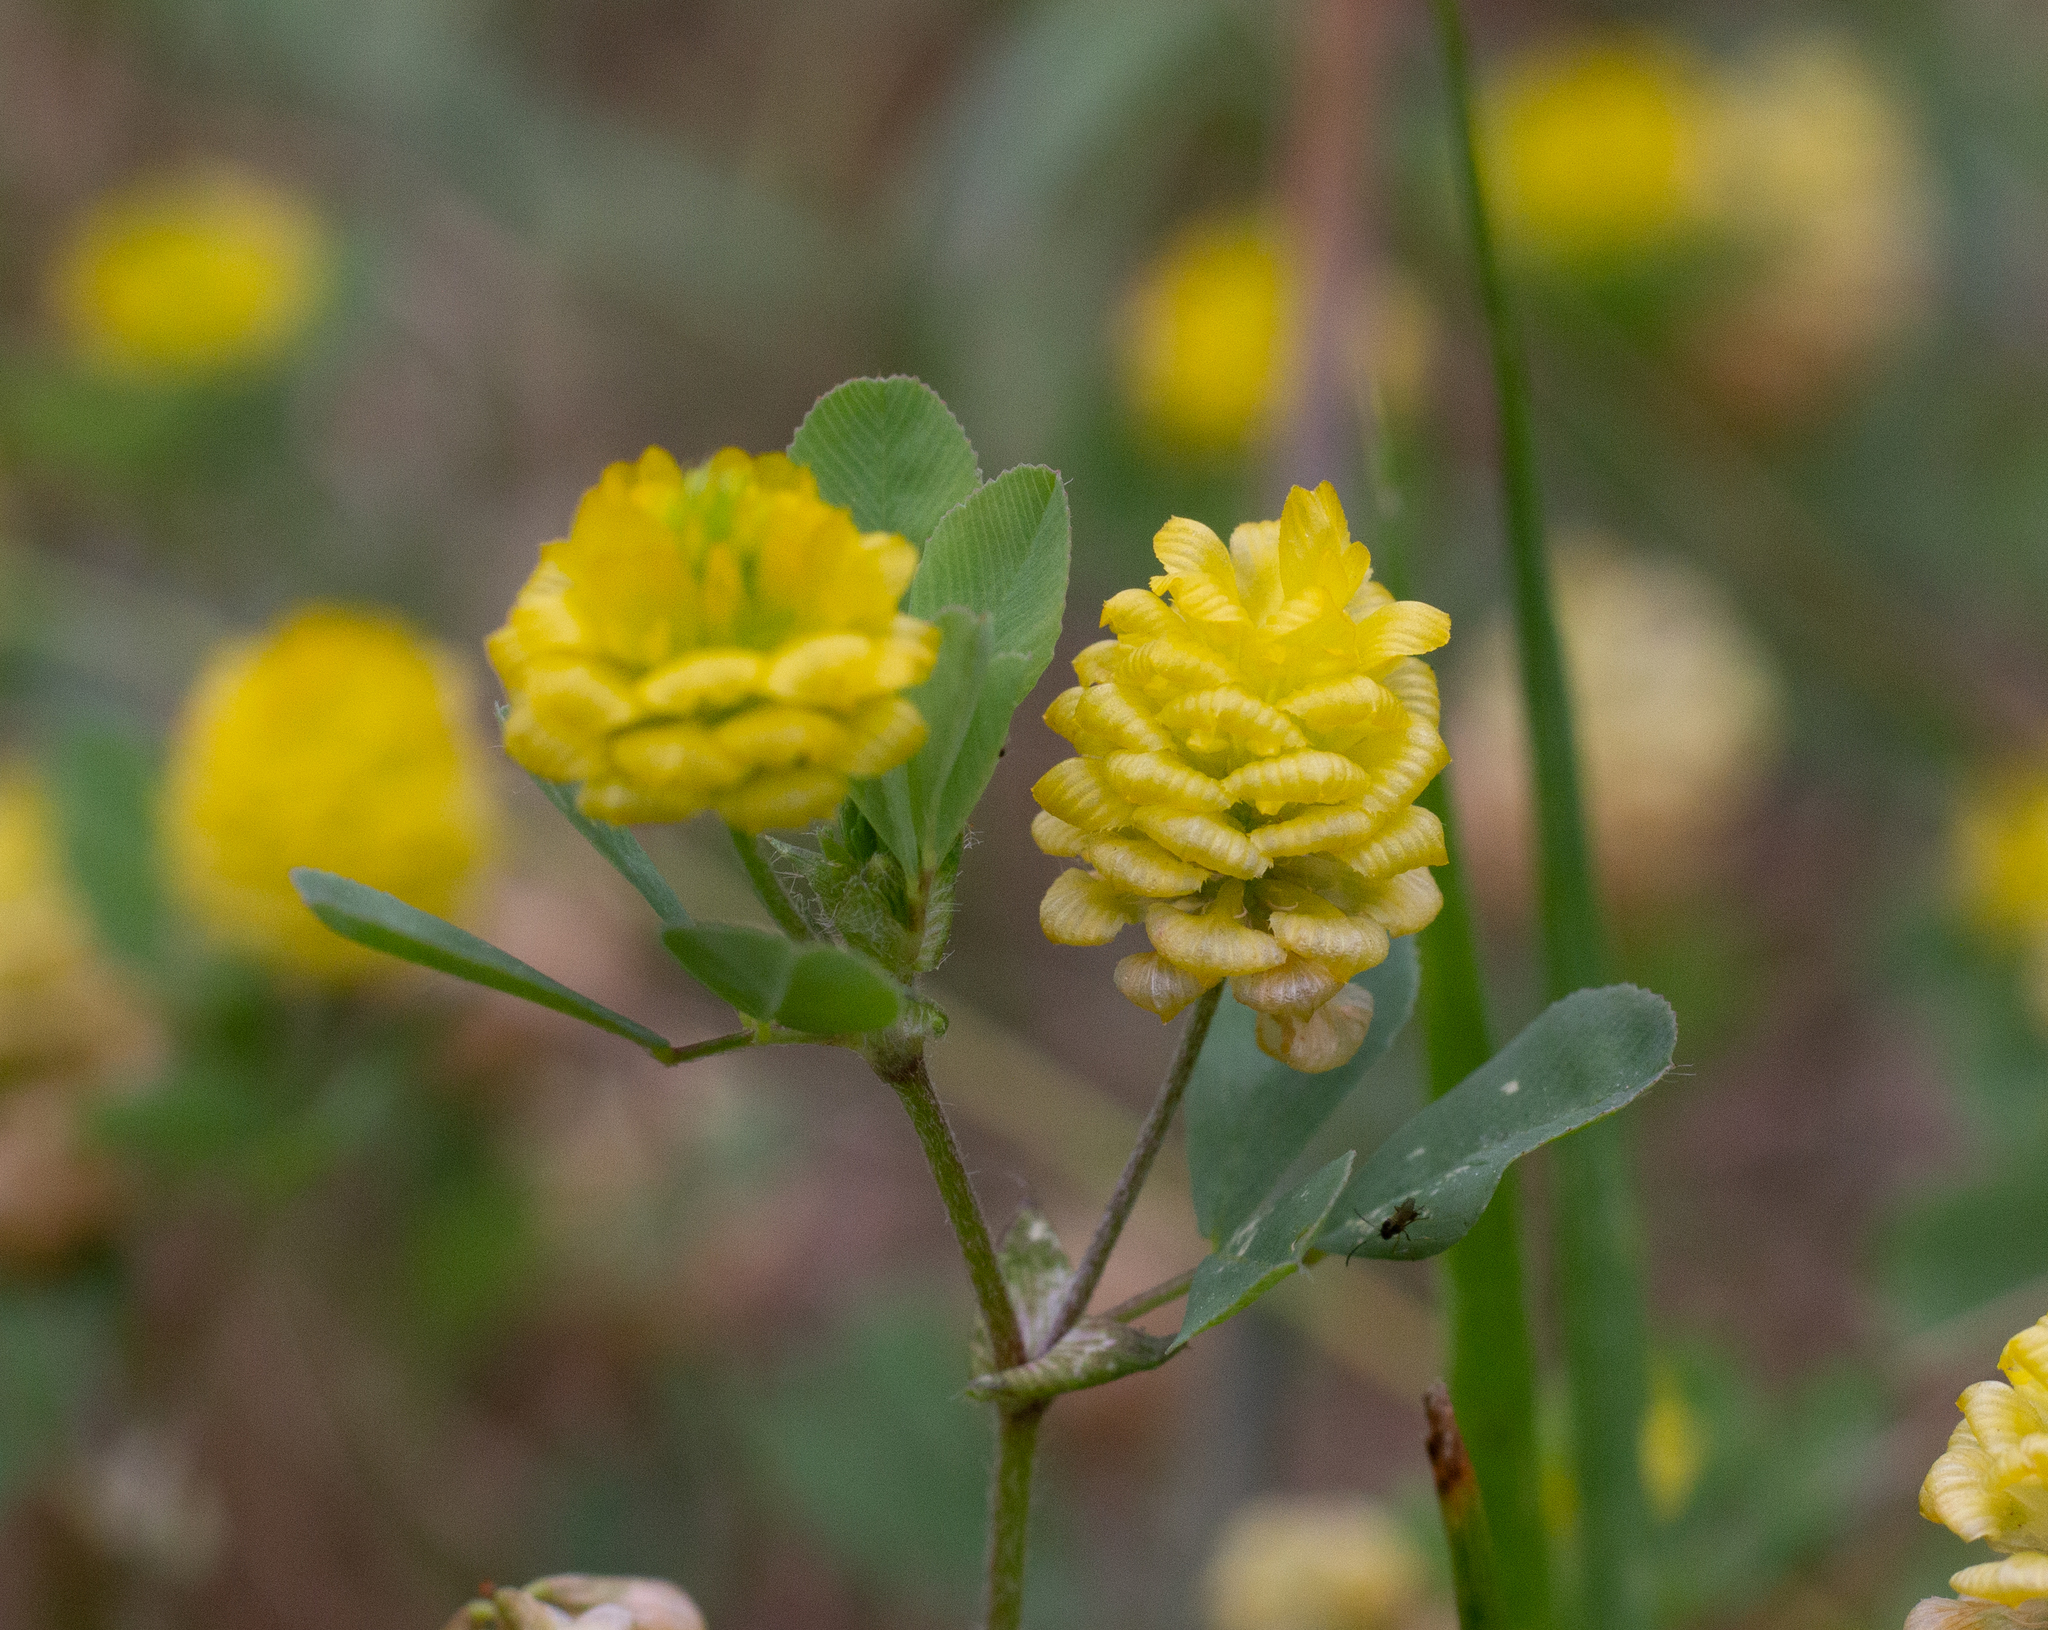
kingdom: Plantae
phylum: Tracheophyta
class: Magnoliopsida
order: Fabales
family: Fabaceae
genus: Trifolium
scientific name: Trifolium campestre
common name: Field clover
